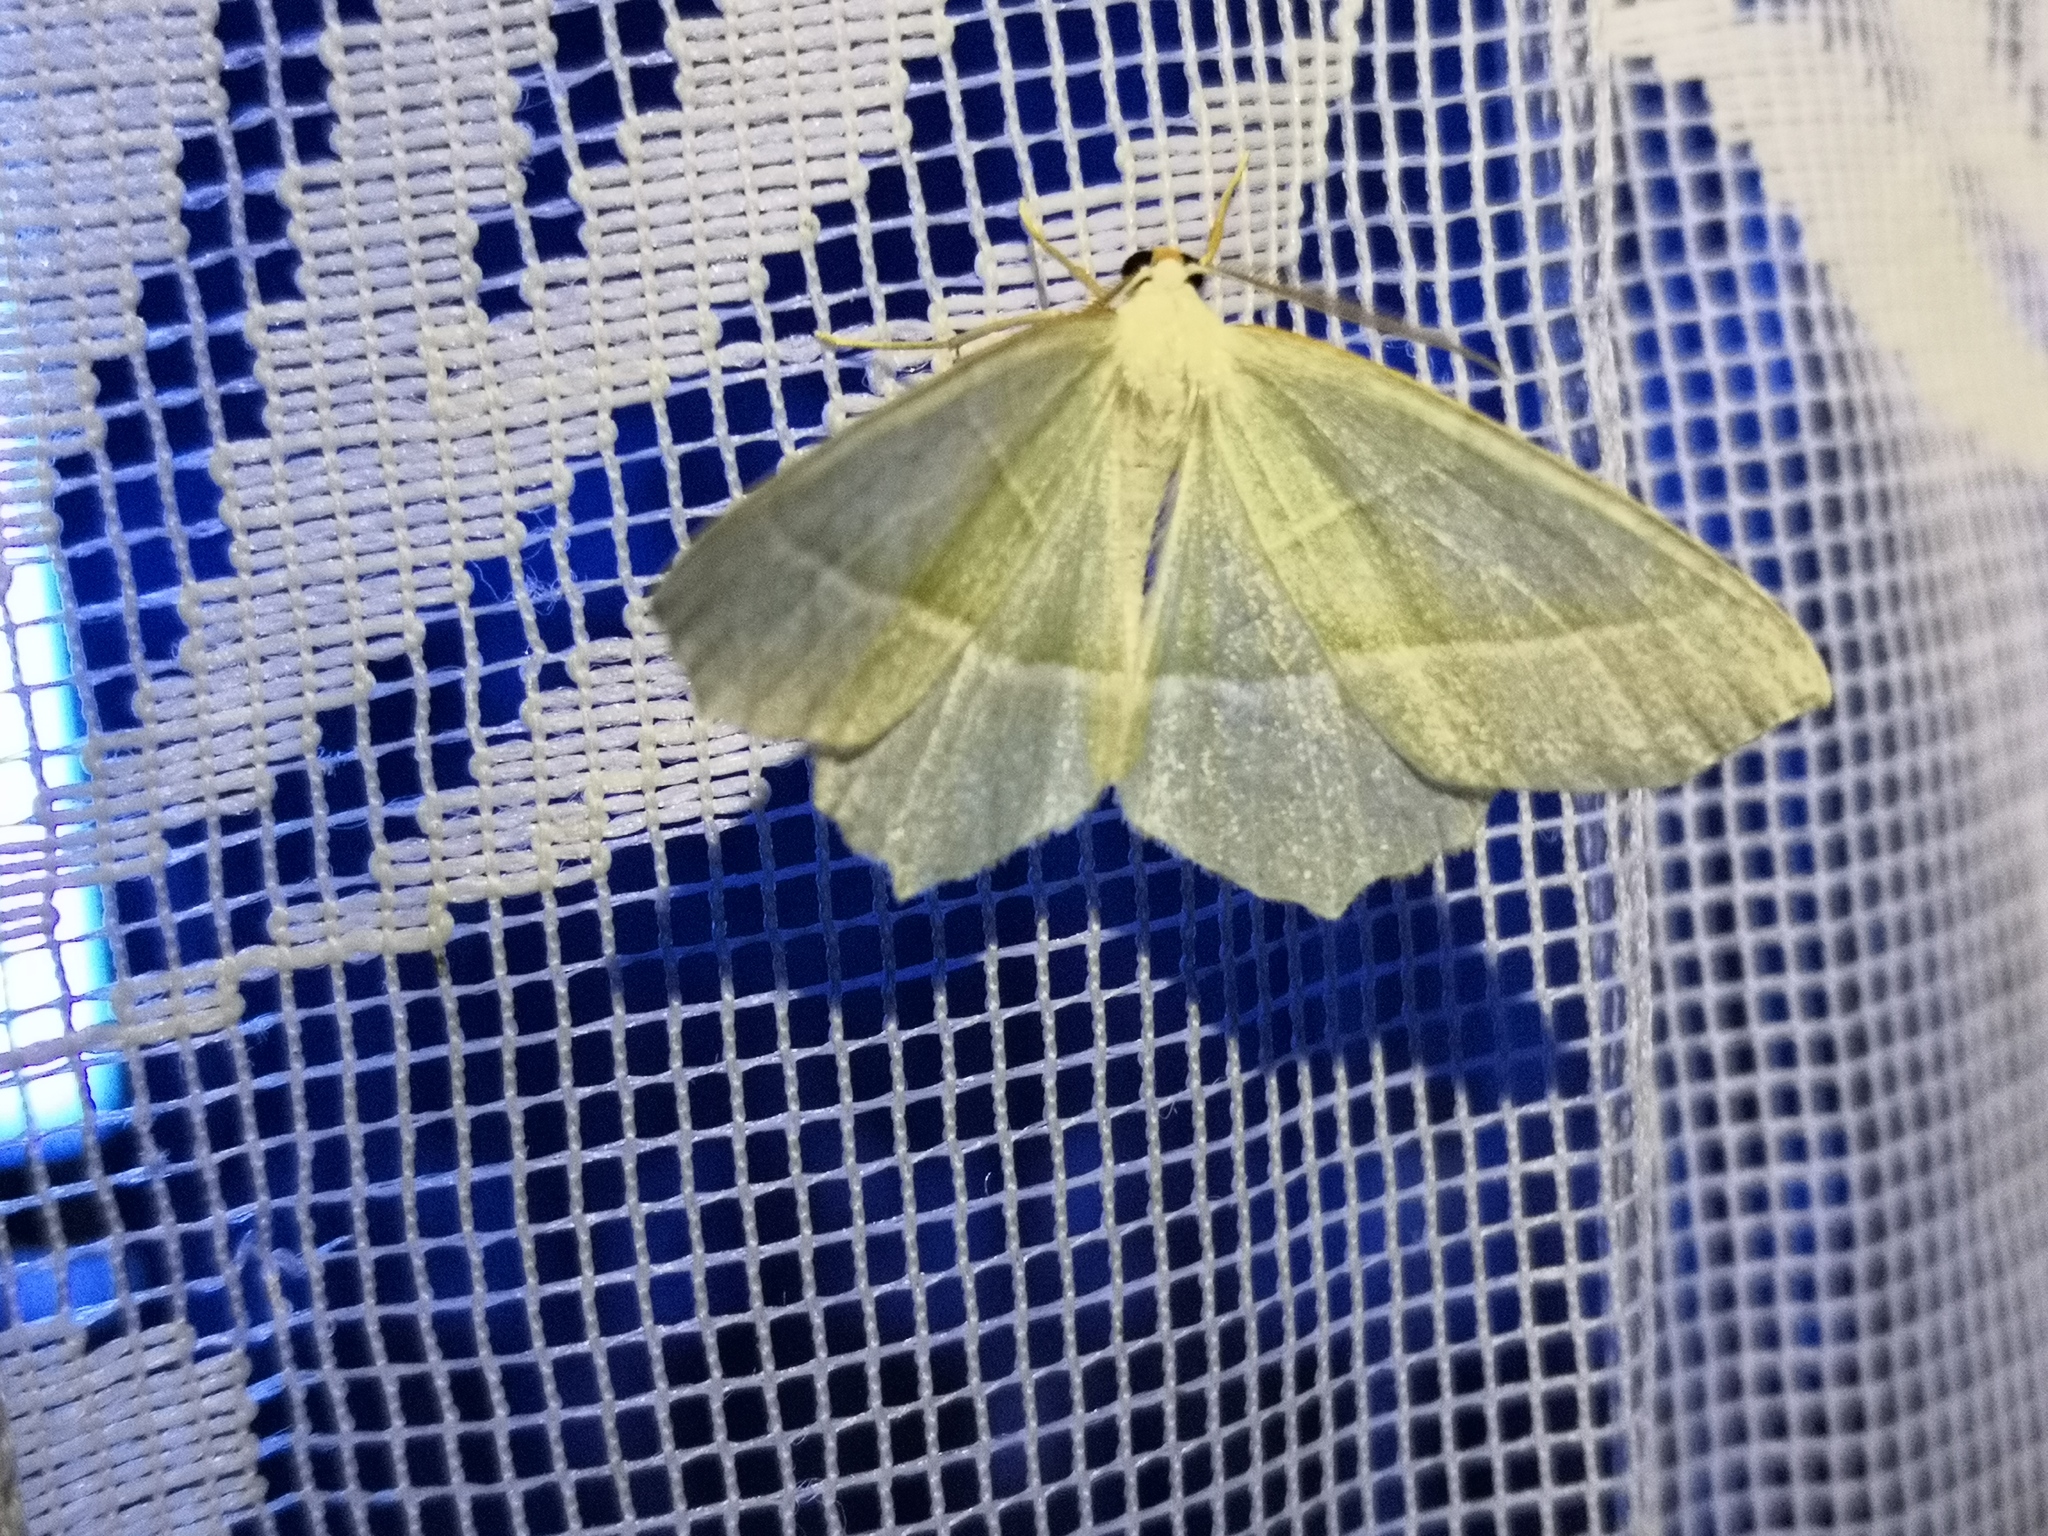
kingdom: Animalia
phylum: Arthropoda
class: Insecta
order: Lepidoptera
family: Geometridae
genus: Campaea
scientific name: Campaea margaritaria
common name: Light emerald
